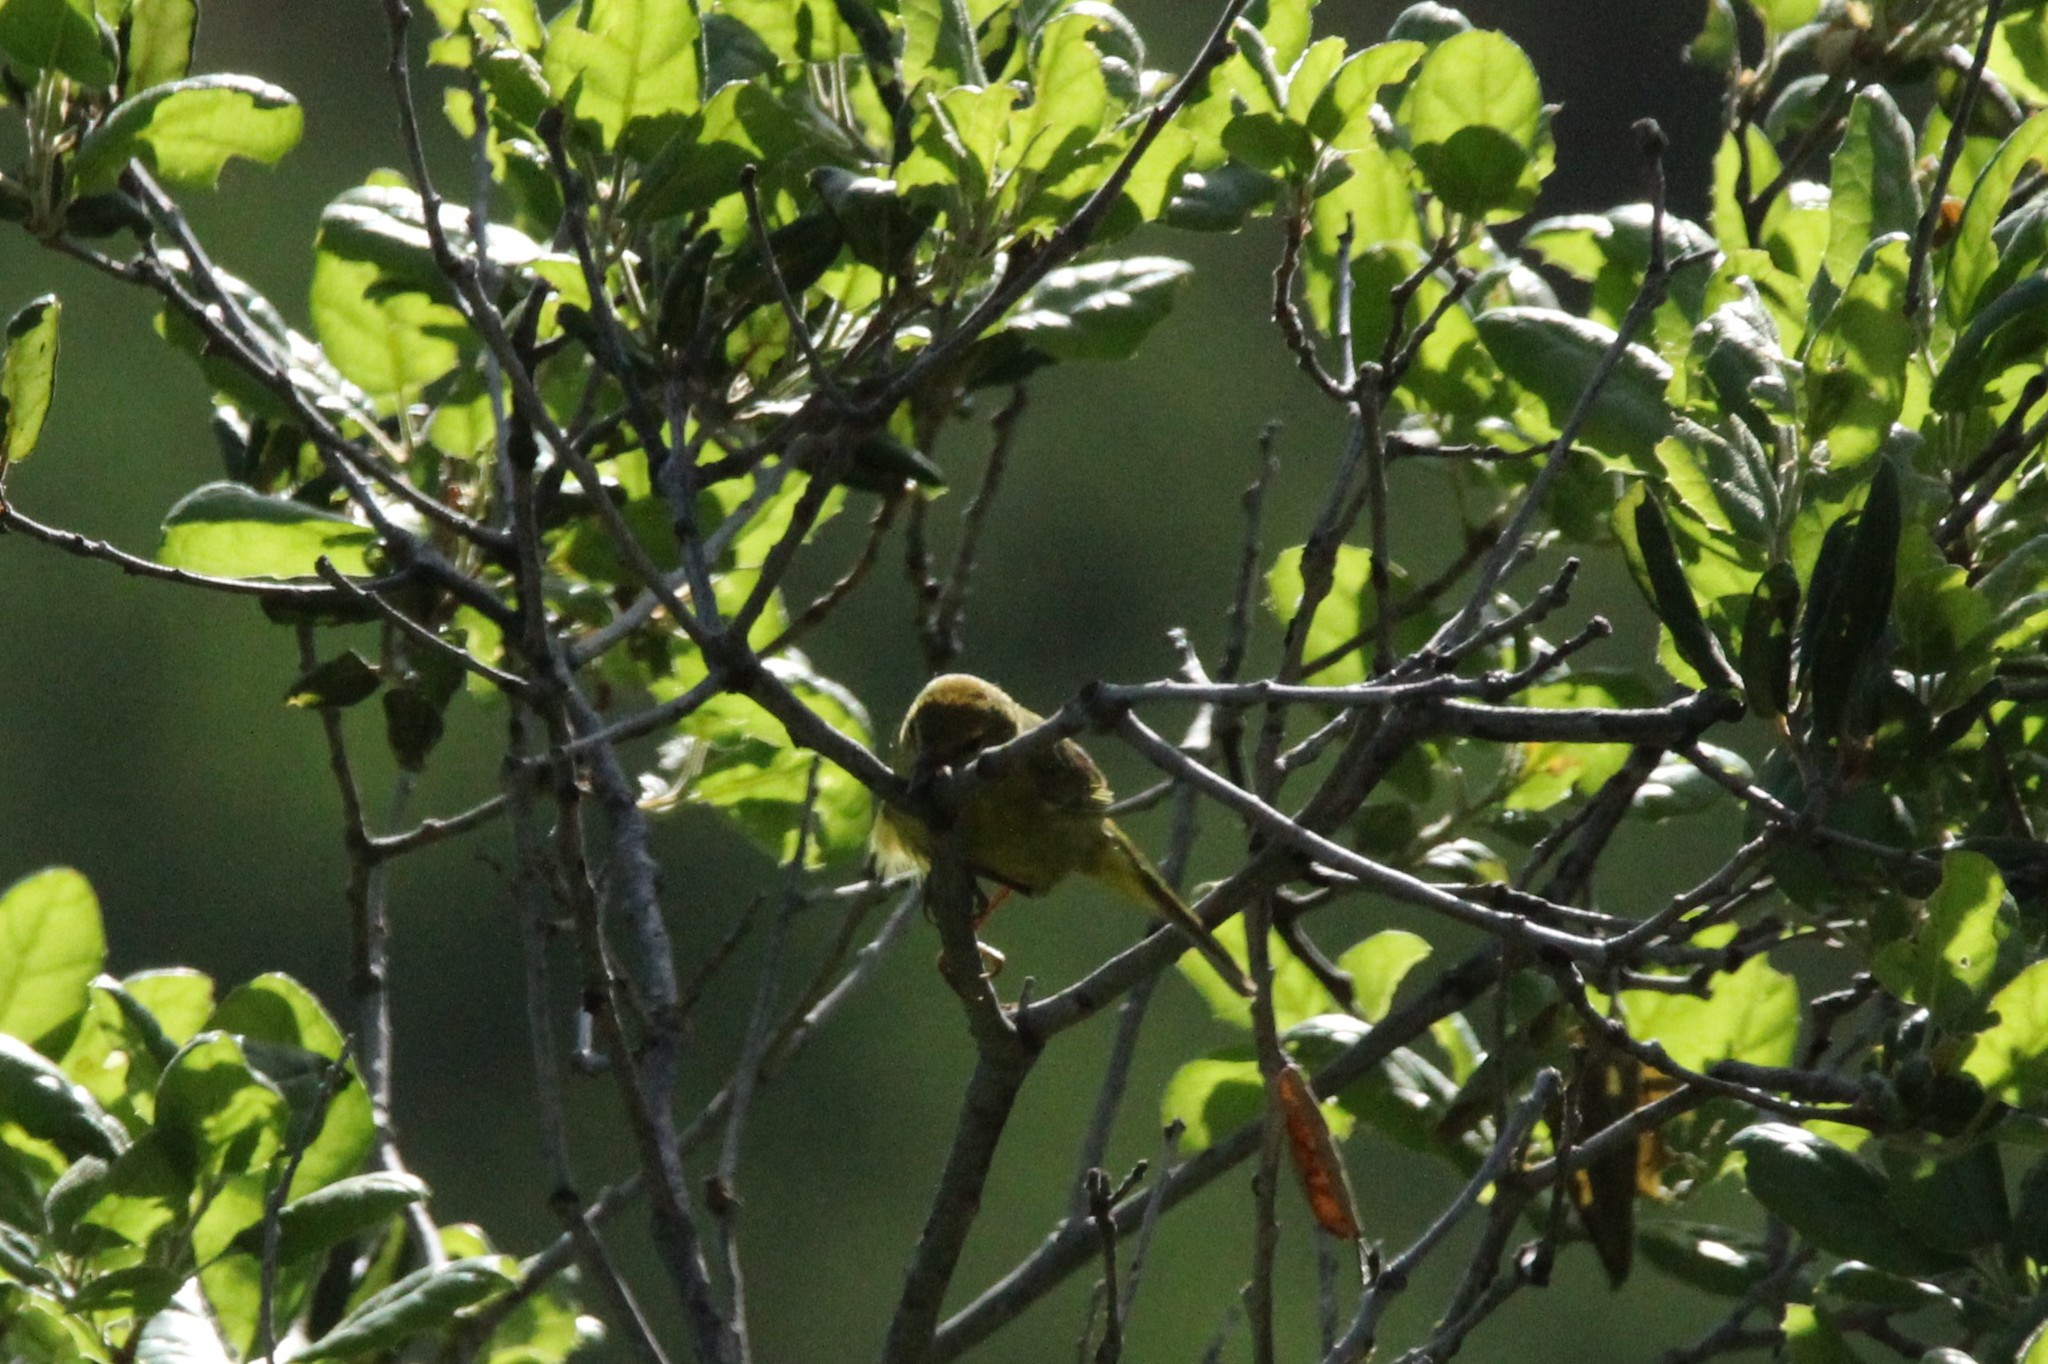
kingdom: Animalia
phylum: Chordata
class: Aves
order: Passeriformes
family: Parulidae
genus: Leiothlypis
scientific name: Leiothlypis celata
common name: Orange-crowned warbler
